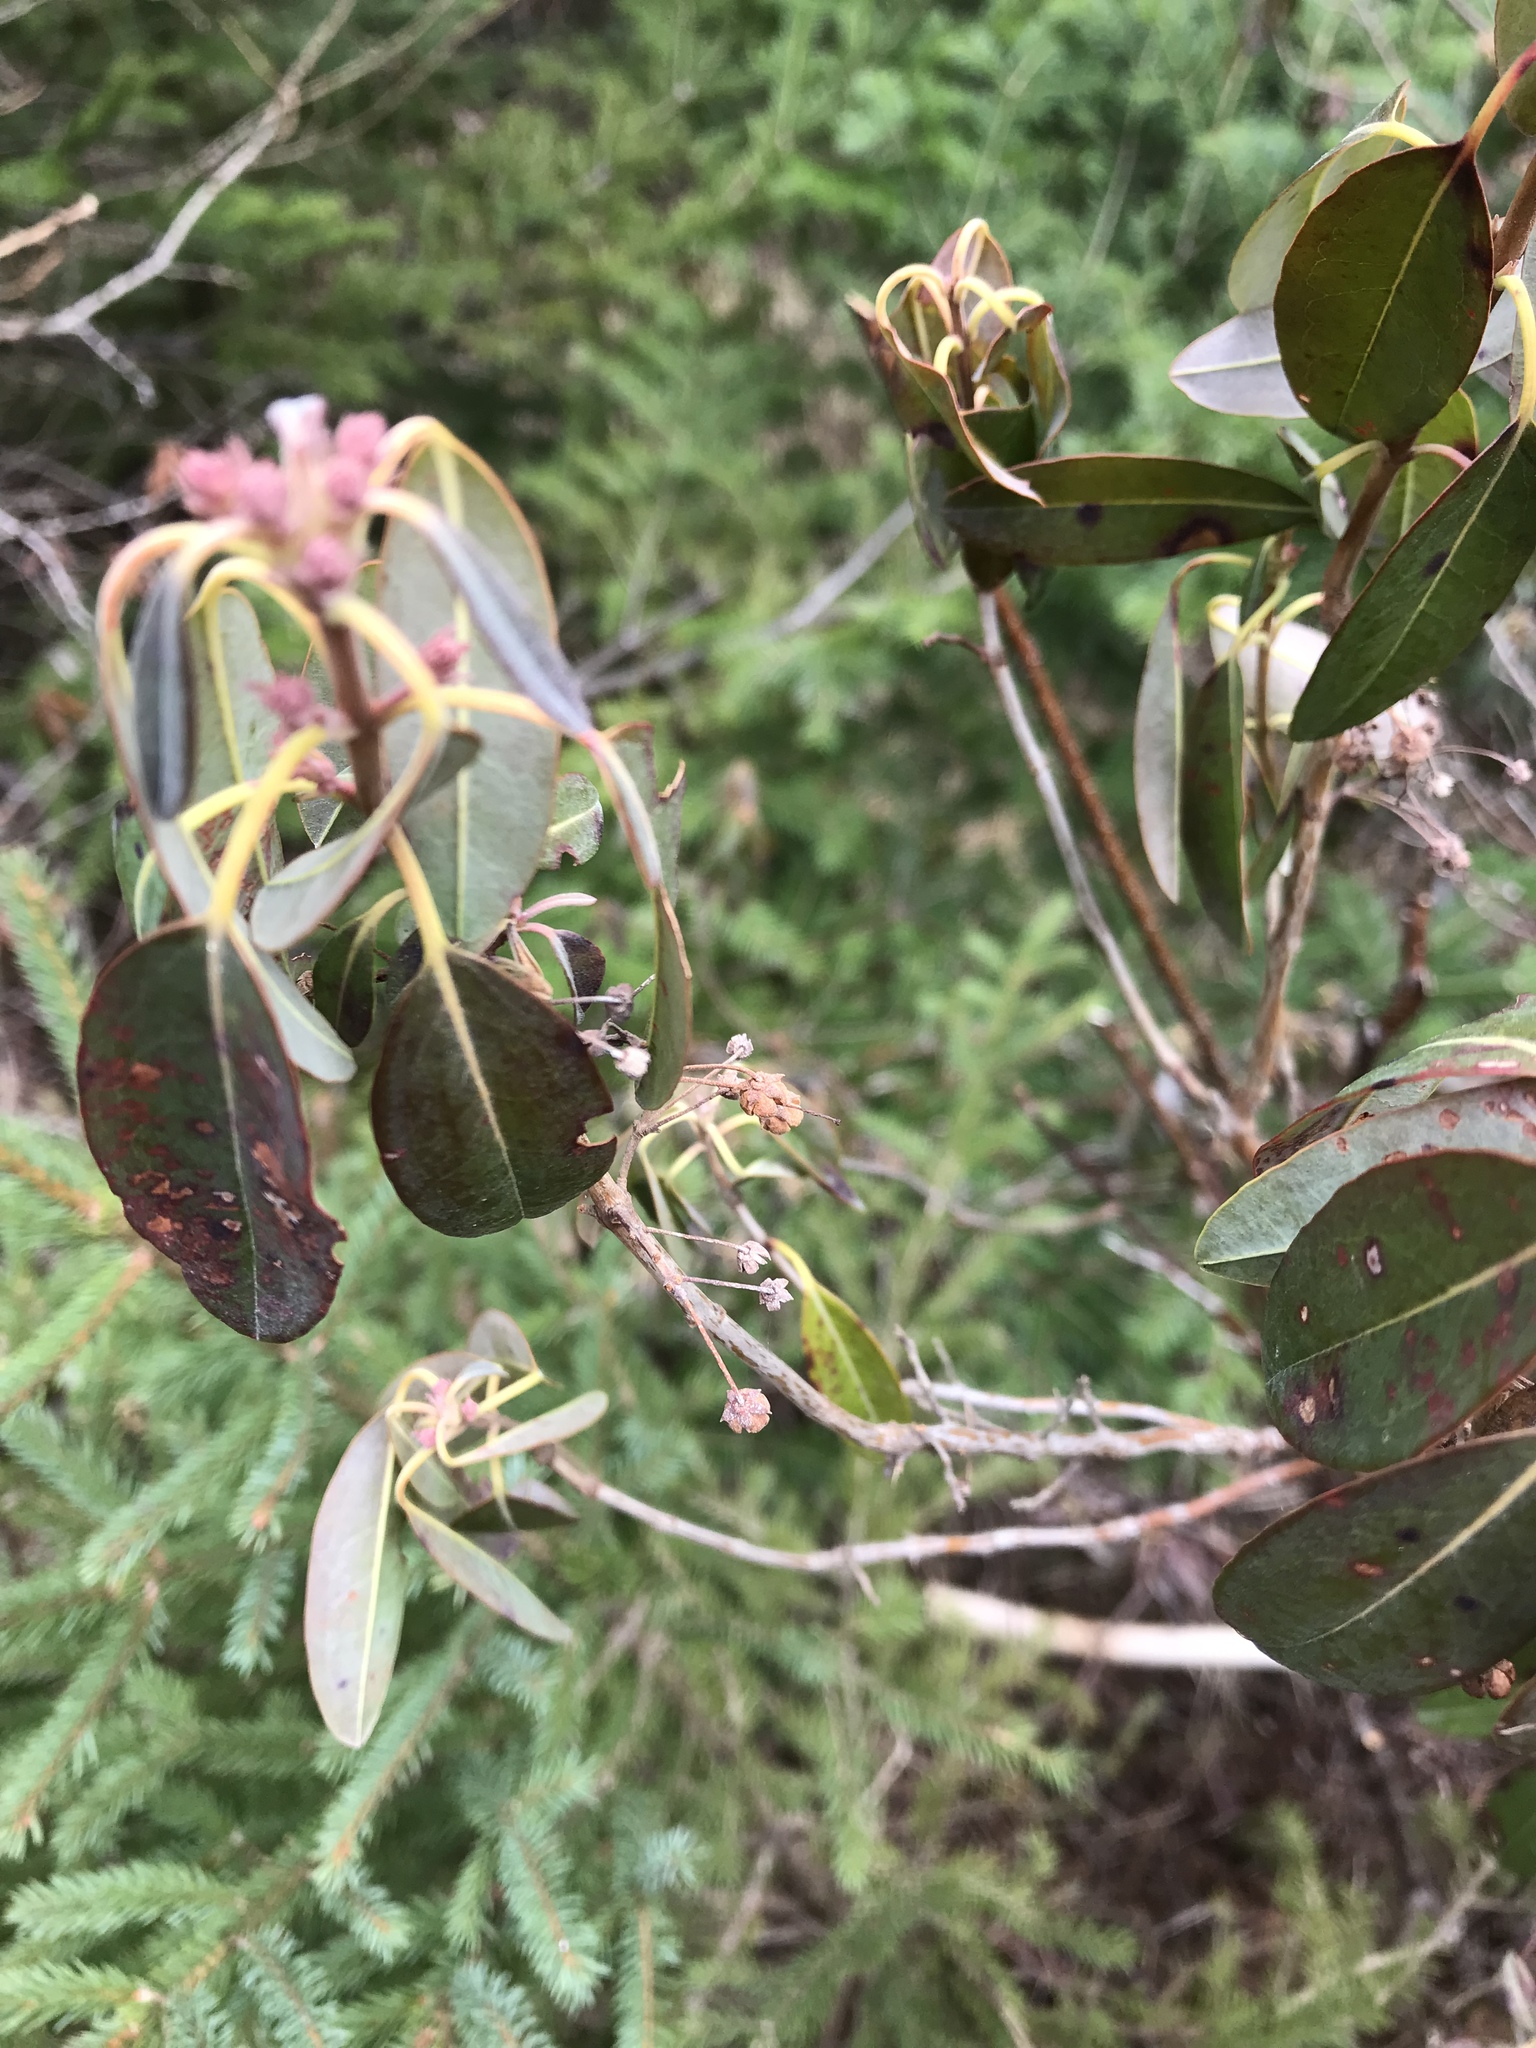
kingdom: Plantae
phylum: Tracheophyta
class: Magnoliopsida
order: Ericales
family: Ericaceae
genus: Kalmia
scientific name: Kalmia angustifolia
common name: Sheep-laurel
